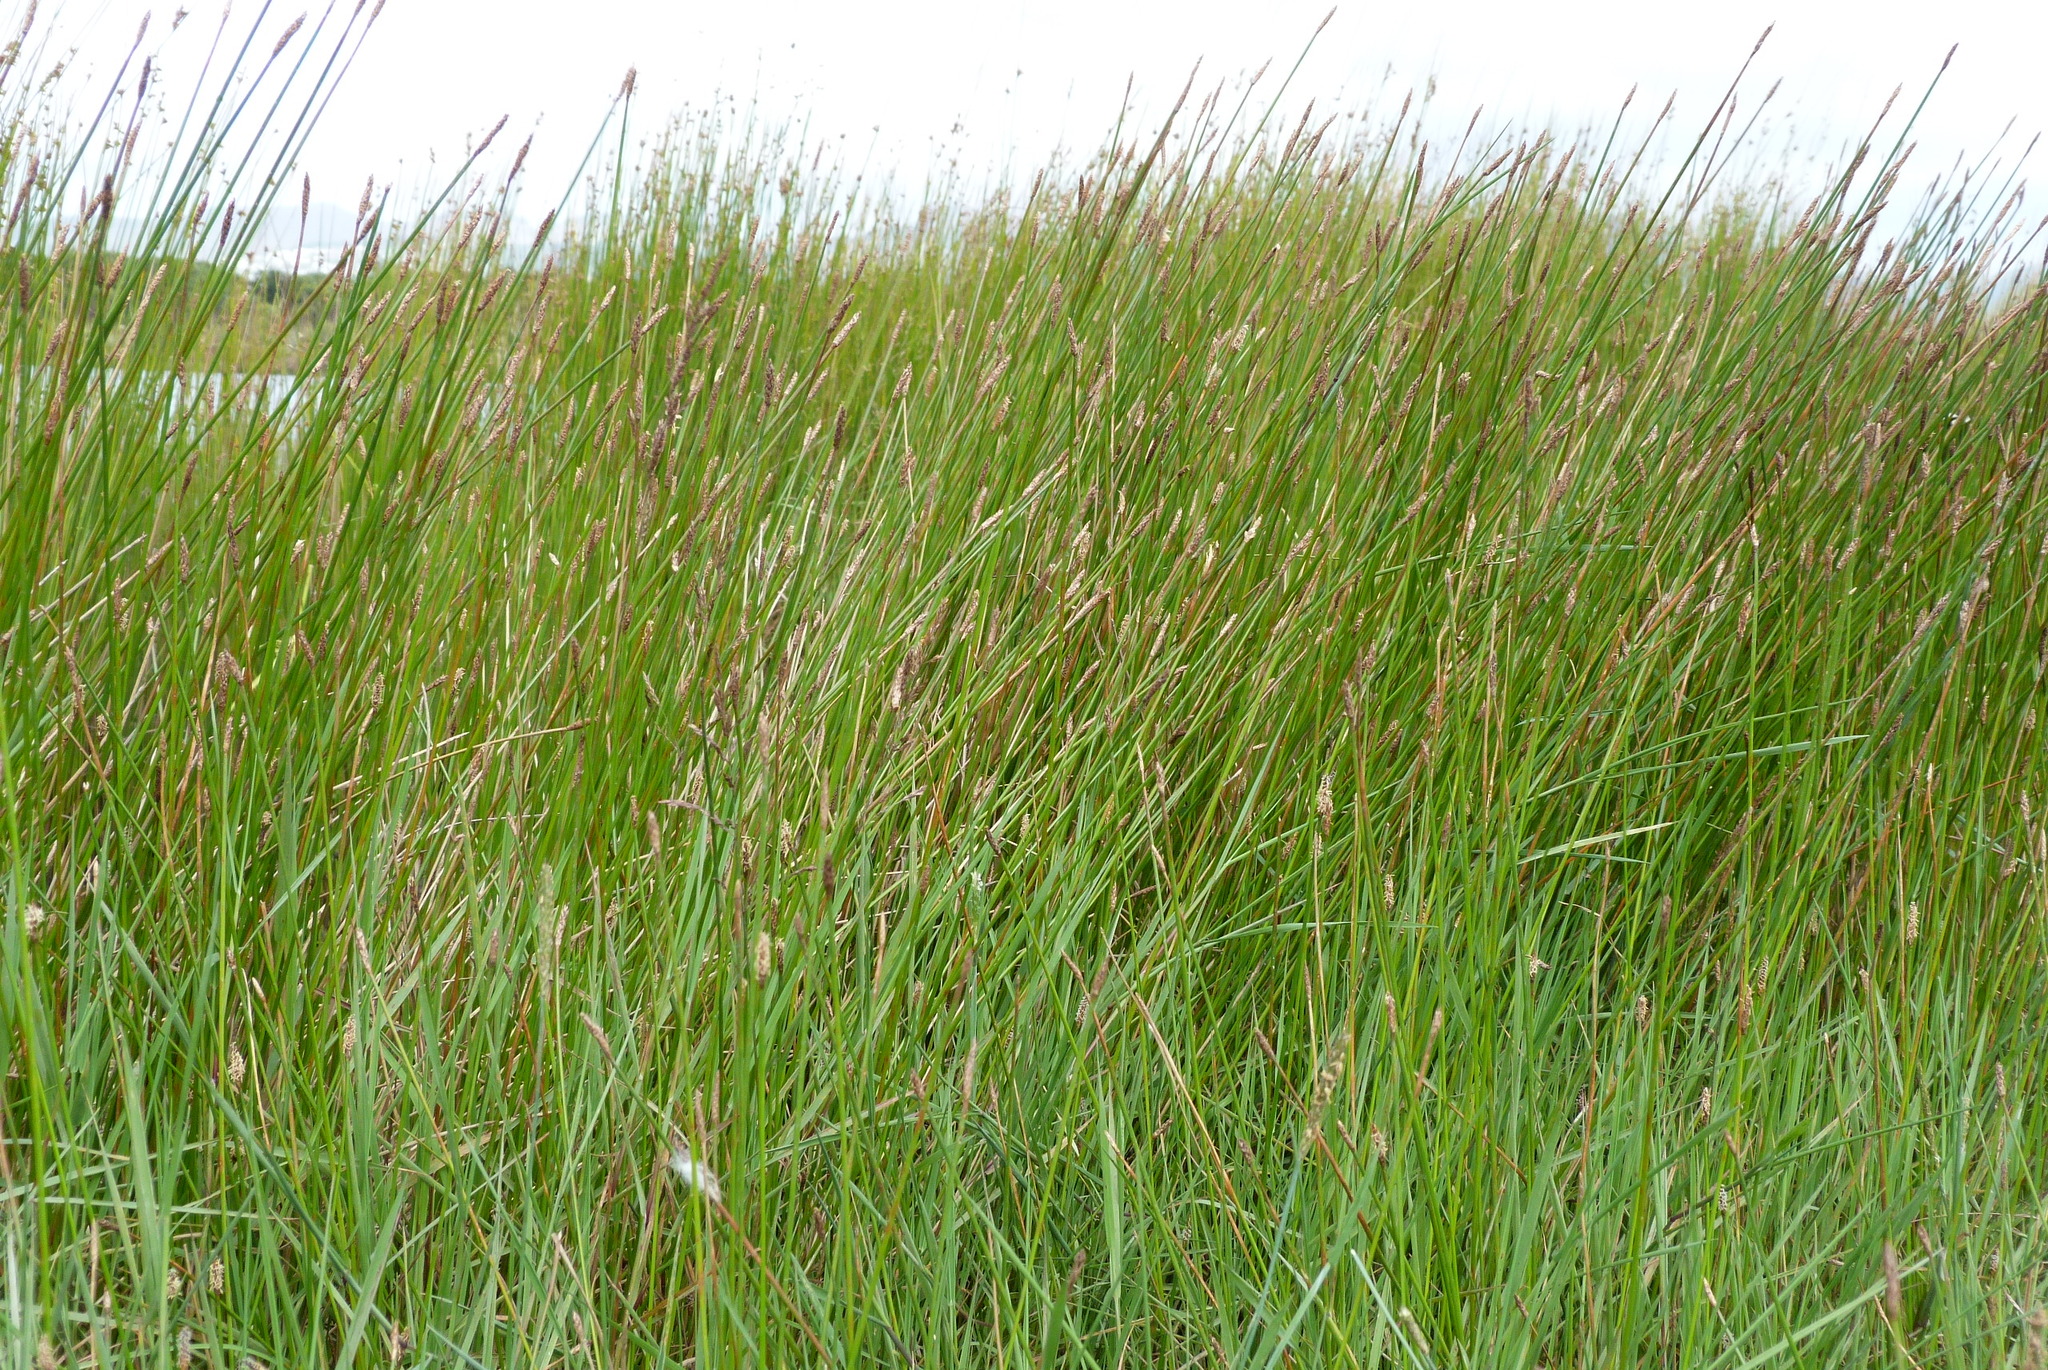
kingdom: Plantae
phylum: Tracheophyta
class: Liliopsida
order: Poales
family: Cyperaceae
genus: Eleocharis
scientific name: Eleocharis acuta
